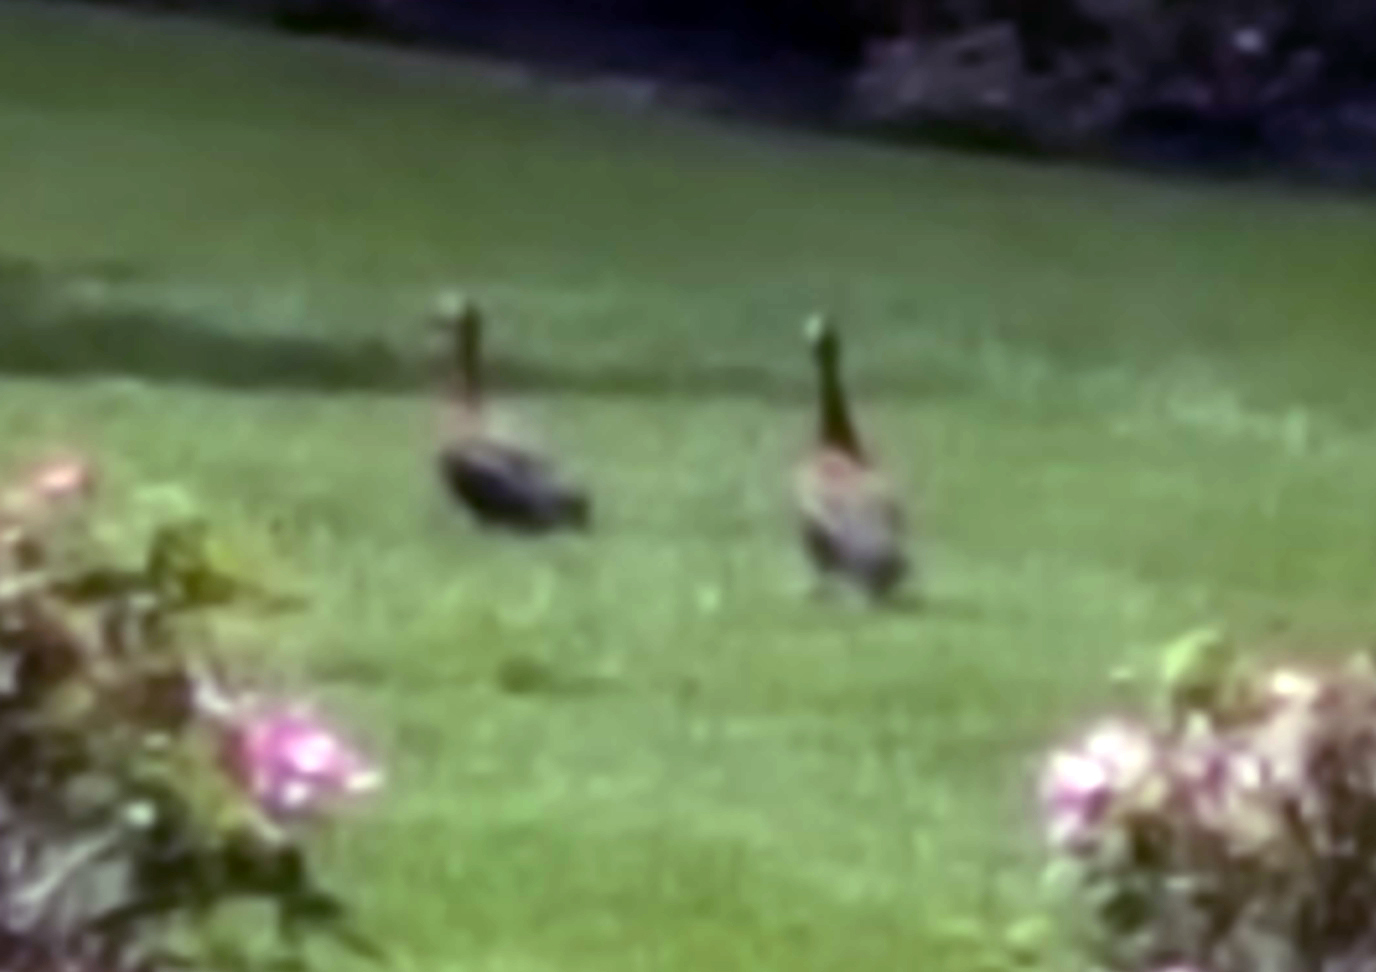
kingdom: Animalia
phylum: Chordata
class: Aves
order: Anseriformes
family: Anatidae
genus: Dendrocygna
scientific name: Dendrocygna autumnalis
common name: Black-bellied whistling duck
